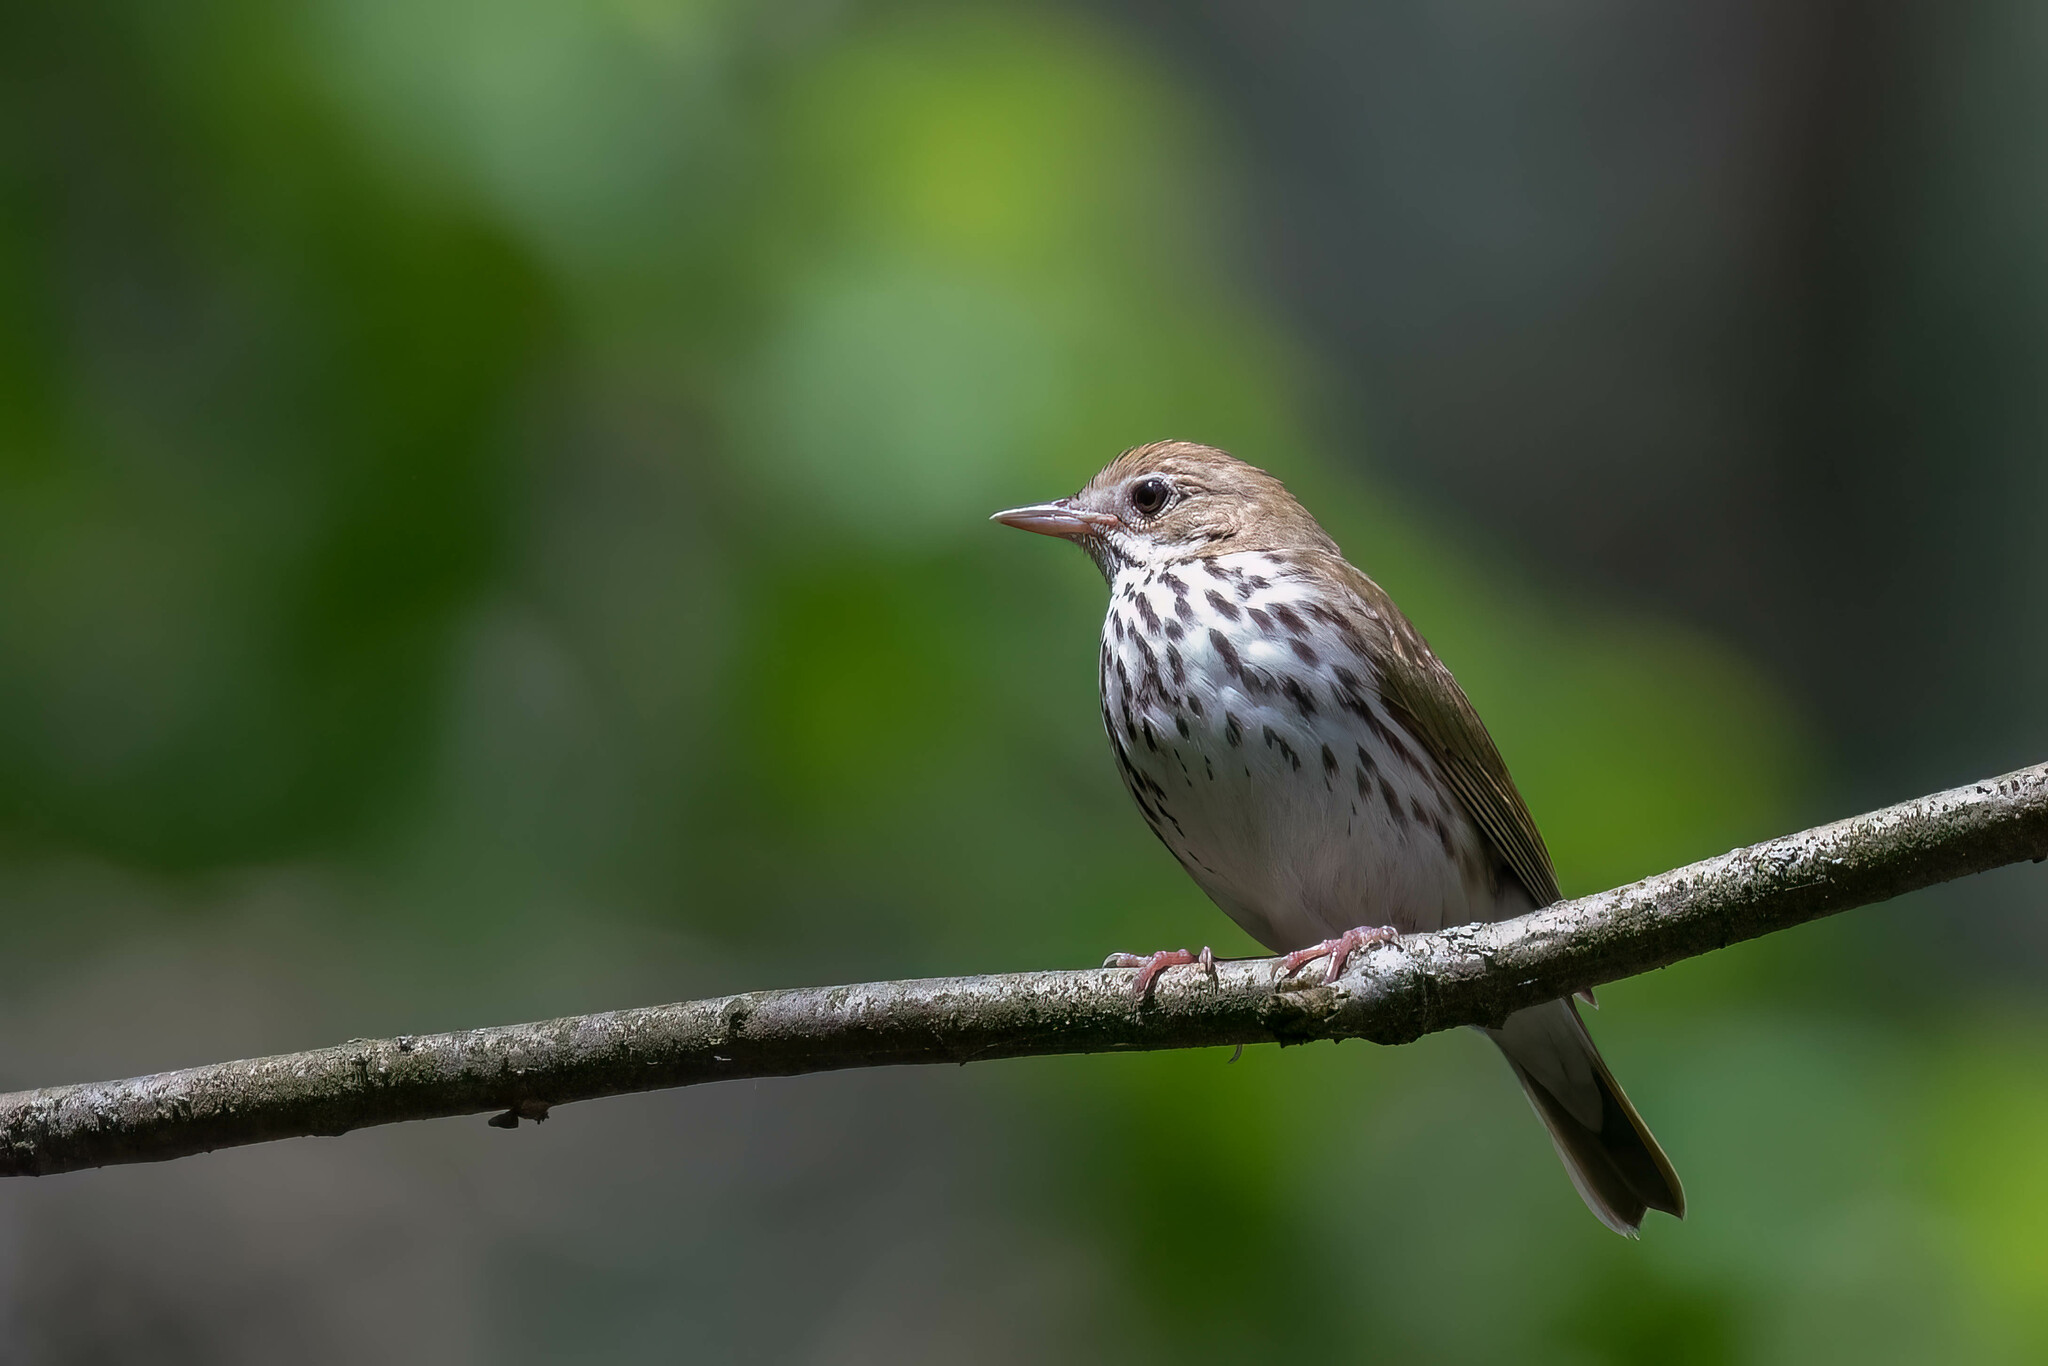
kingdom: Animalia
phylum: Chordata
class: Aves
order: Passeriformes
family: Parulidae
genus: Seiurus
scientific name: Seiurus aurocapilla
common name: Ovenbird
